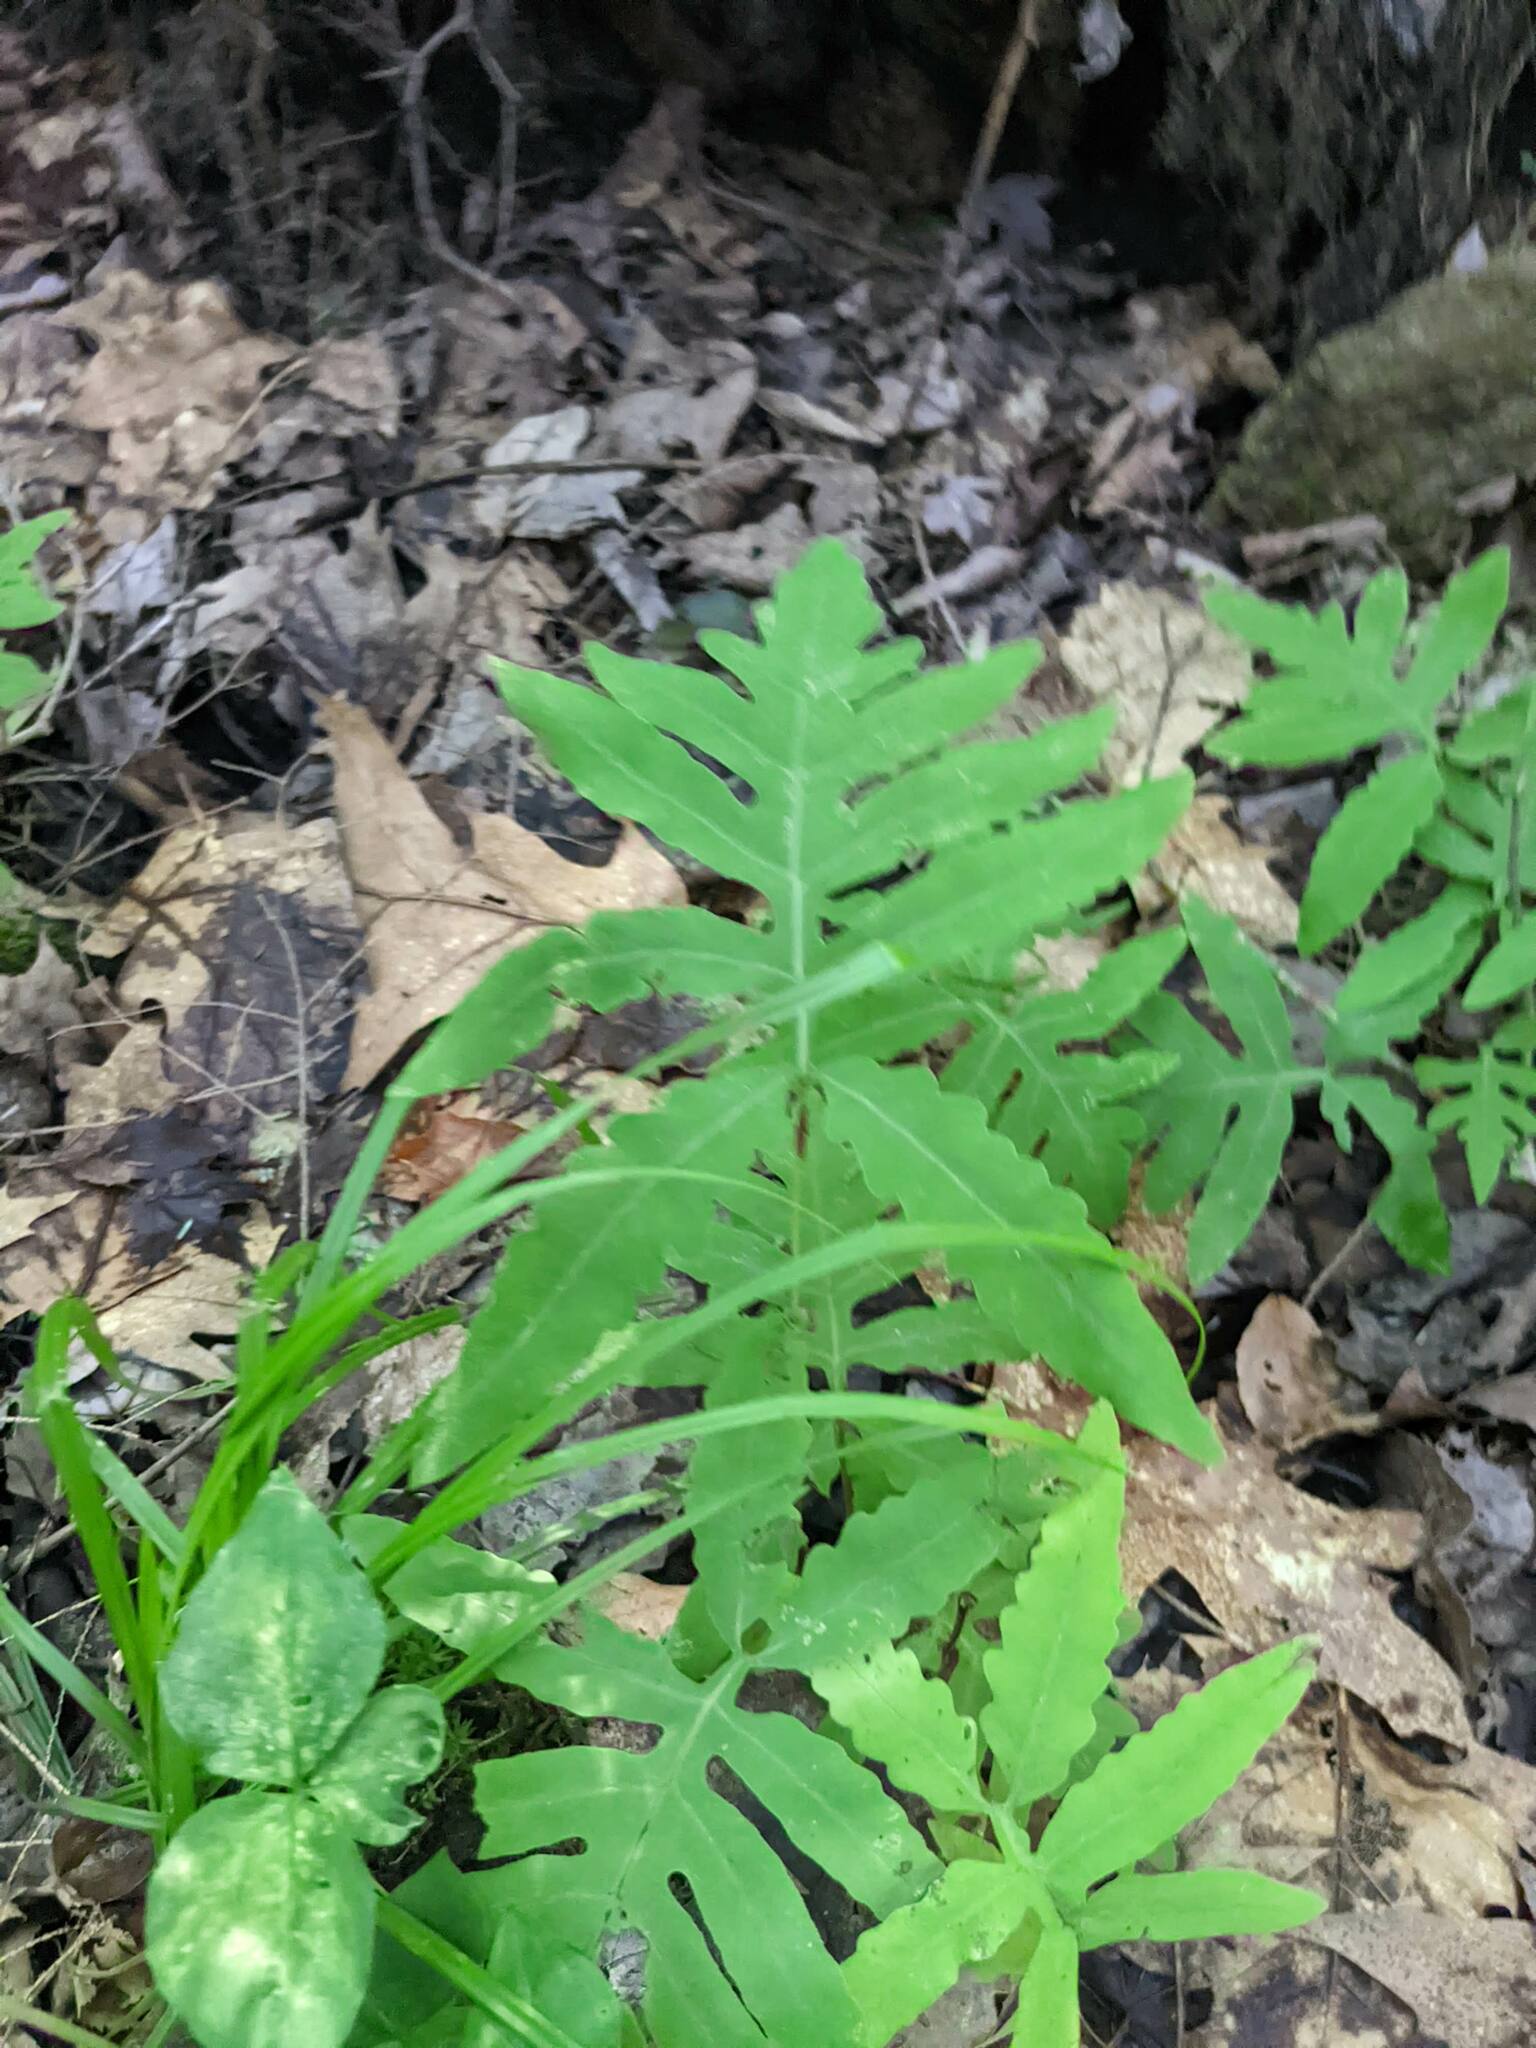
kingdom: Plantae
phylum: Tracheophyta
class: Polypodiopsida
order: Polypodiales
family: Onocleaceae
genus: Onoclea
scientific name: Onoclea sensibilis
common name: Sensitive fern
